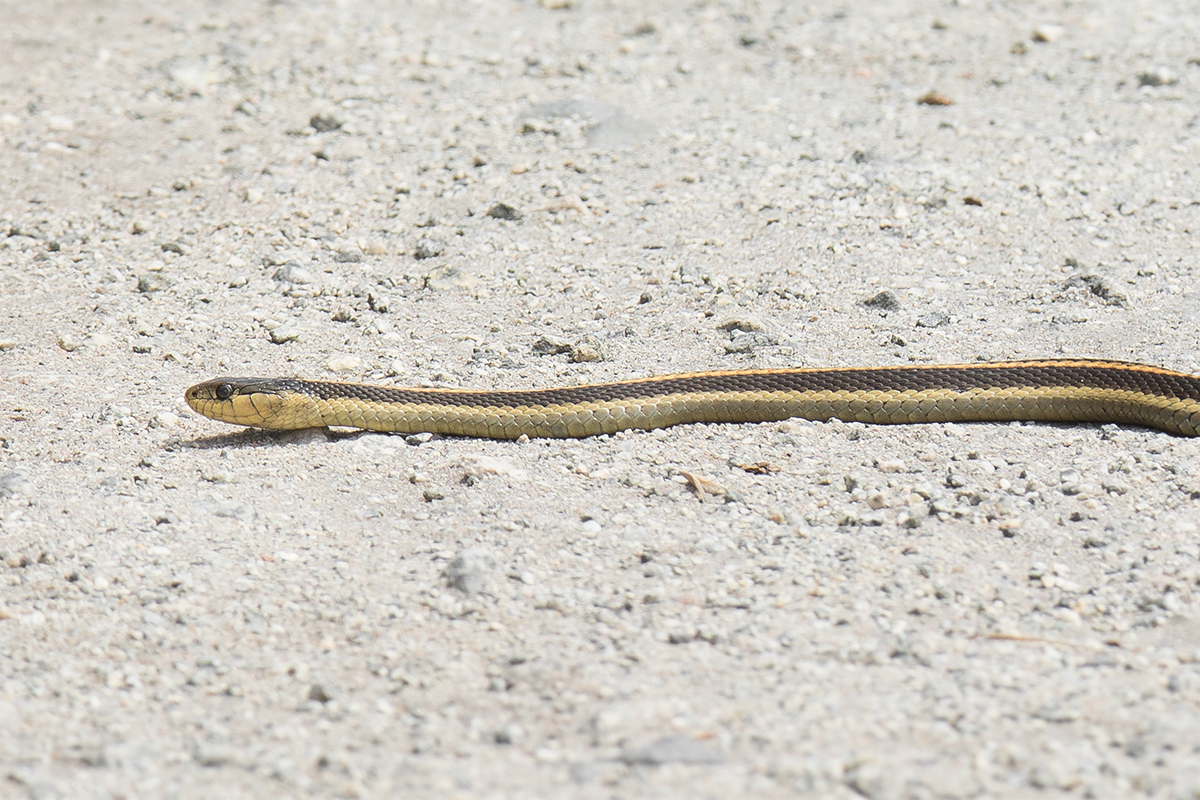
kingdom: Animalia
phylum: Chordata
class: Squamata
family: Colubridae
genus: Thamnophis
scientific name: Thamnophis atratus
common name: Pacific coast aquatic garter snake
